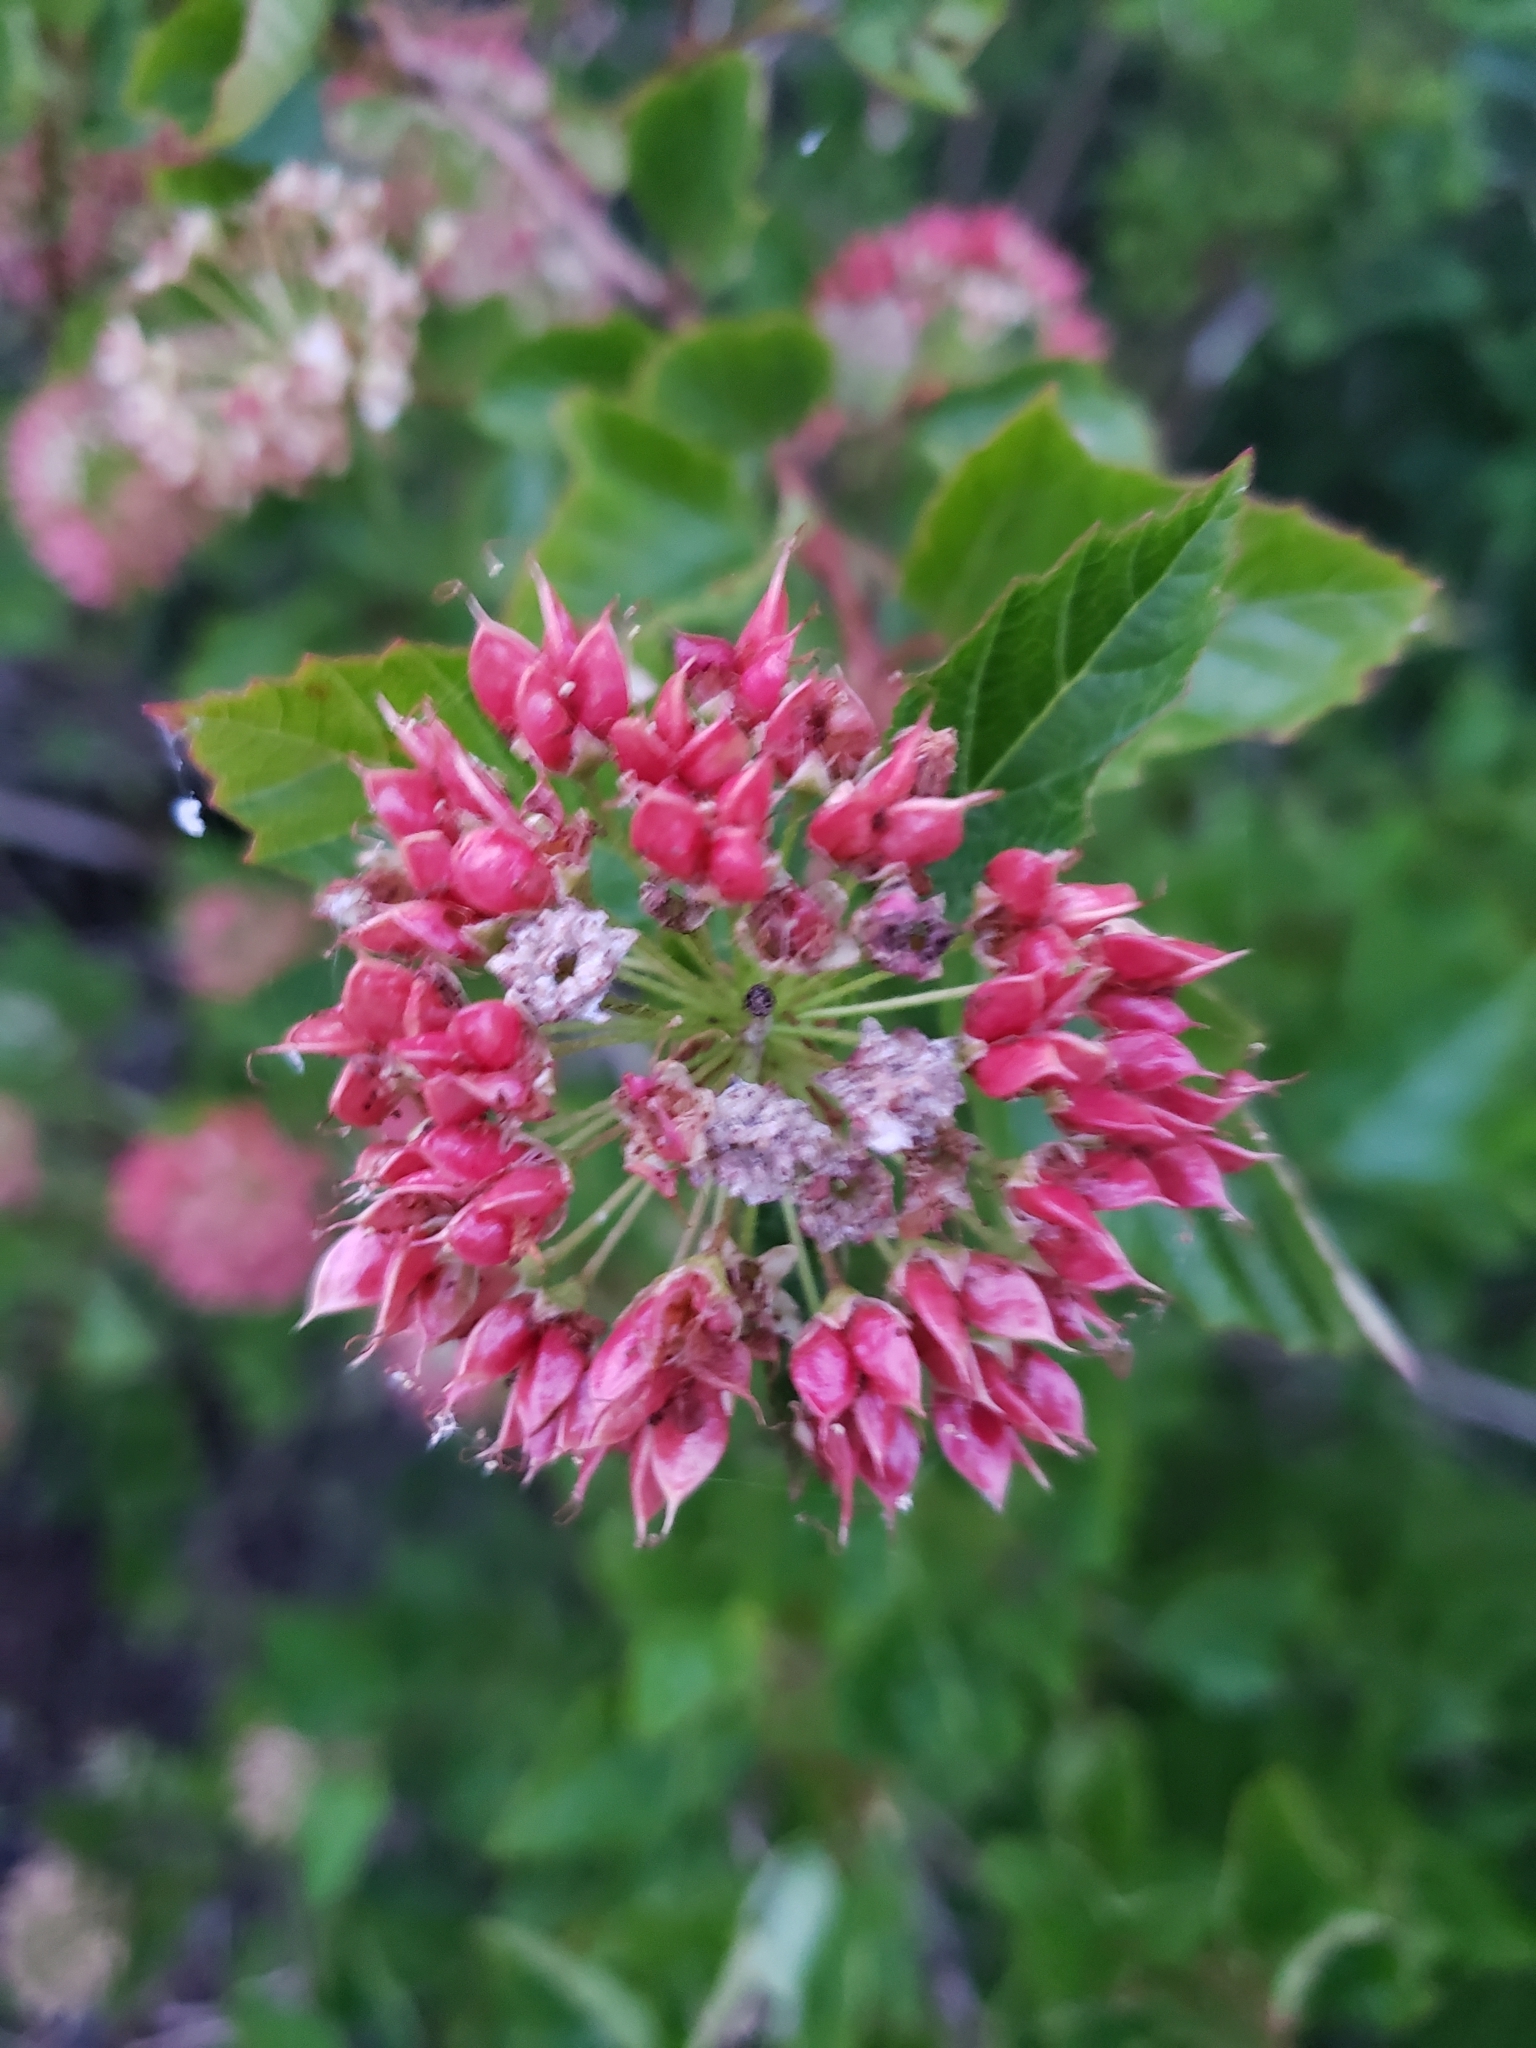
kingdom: Plantae
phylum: Tracheophyta
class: Magnoliopsida
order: Rosales
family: Rosaceae
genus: Physocarpus
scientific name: Physocarpus opulifolius
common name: Ninebark
